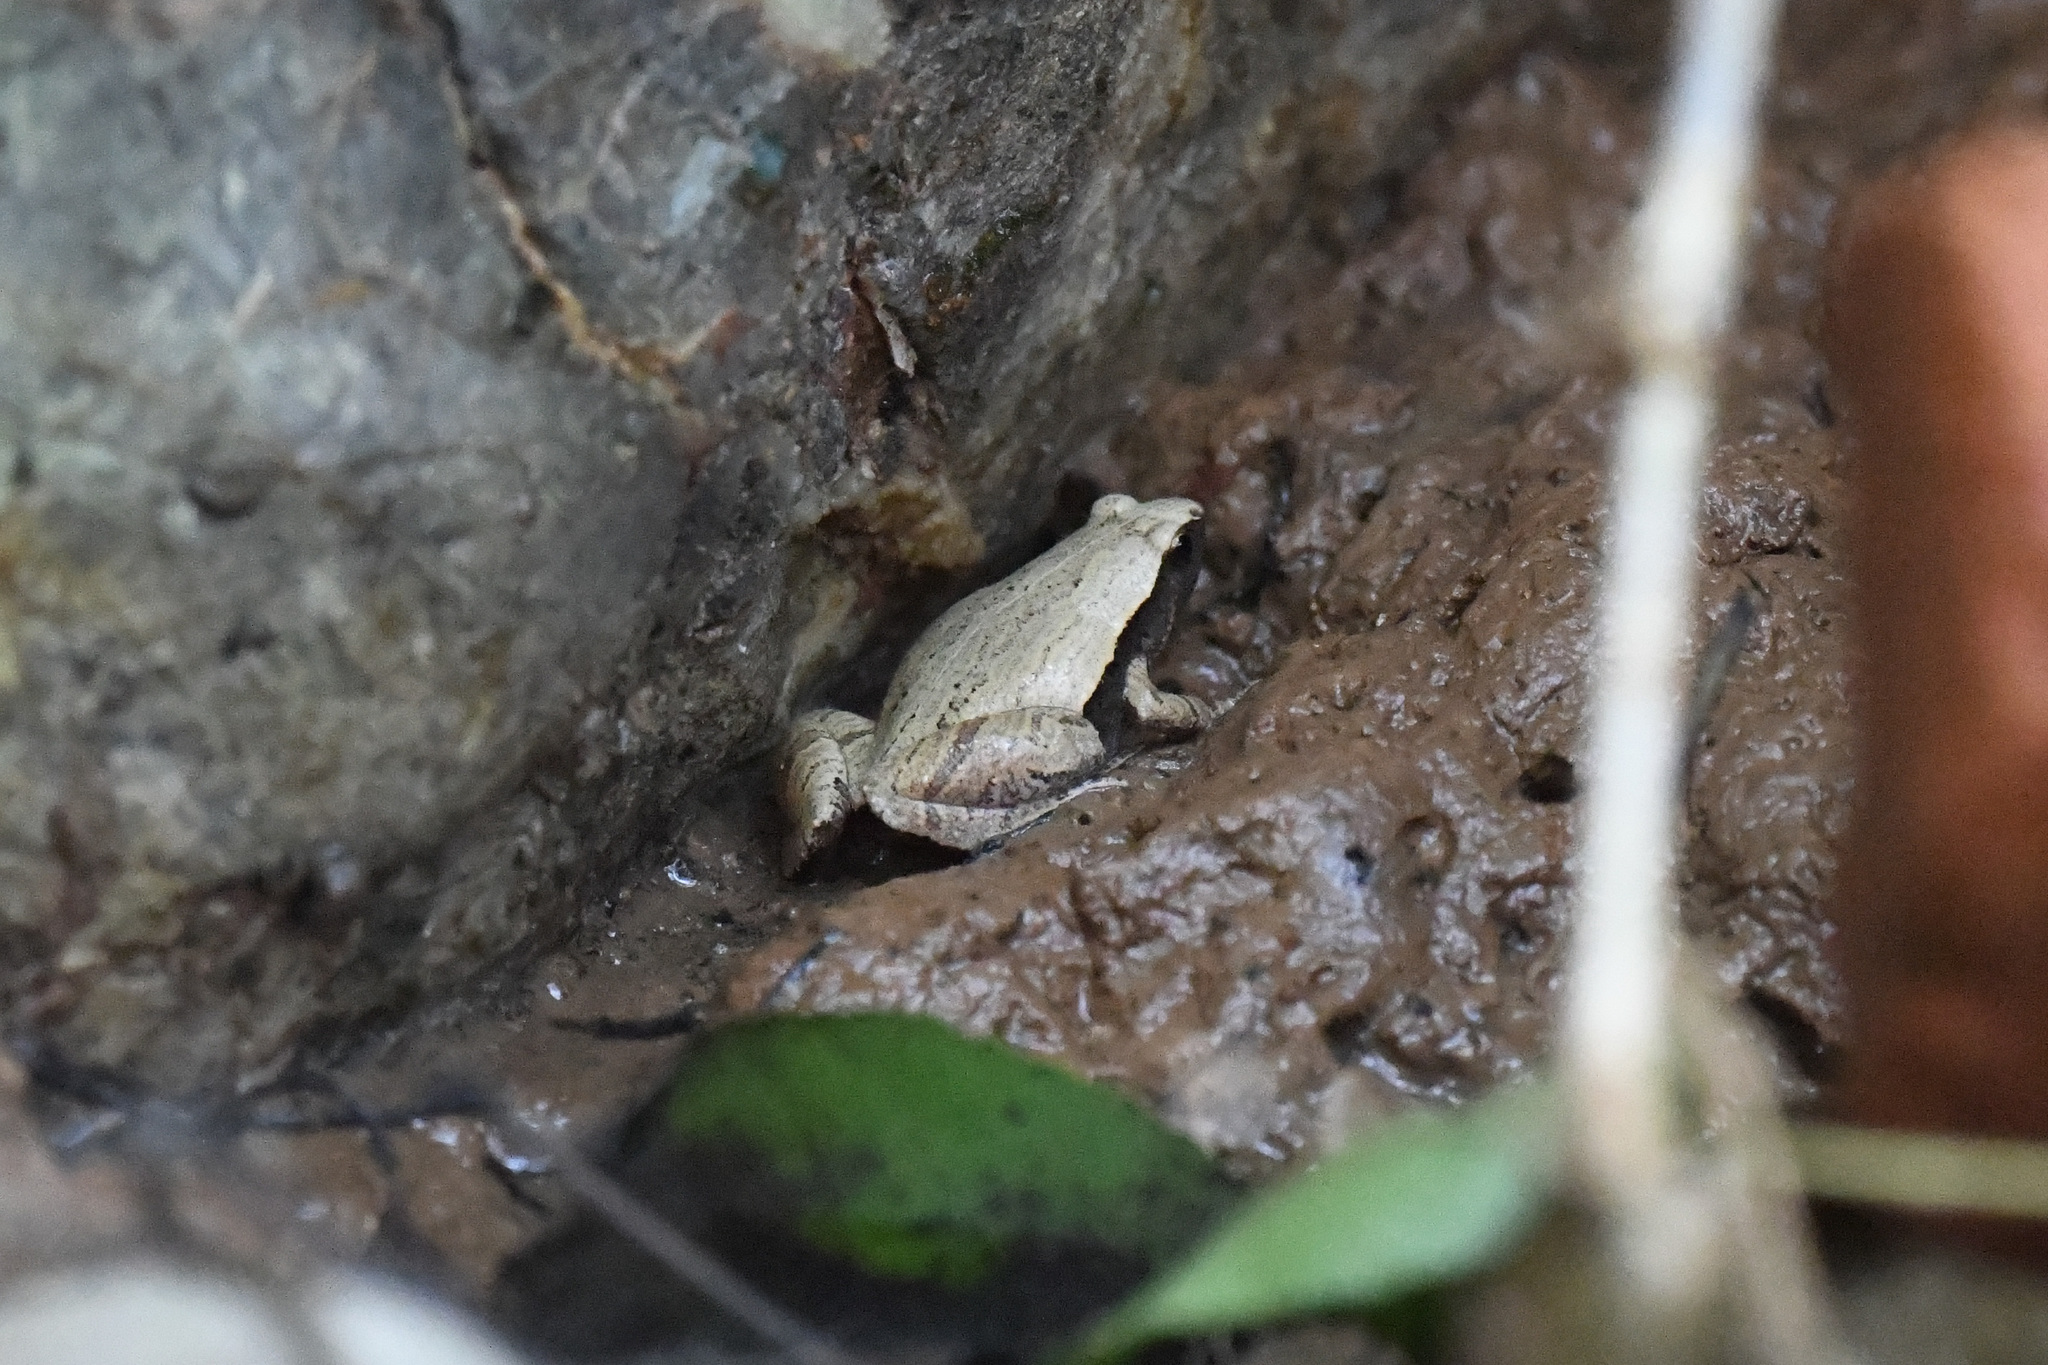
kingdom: Animalia
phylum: Chordata
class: Amphibia
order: Anura
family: Microhylidae
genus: Microhyla
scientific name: Microhyla heymonsi
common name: Taiwan rice frog,dark sided chorus frog
